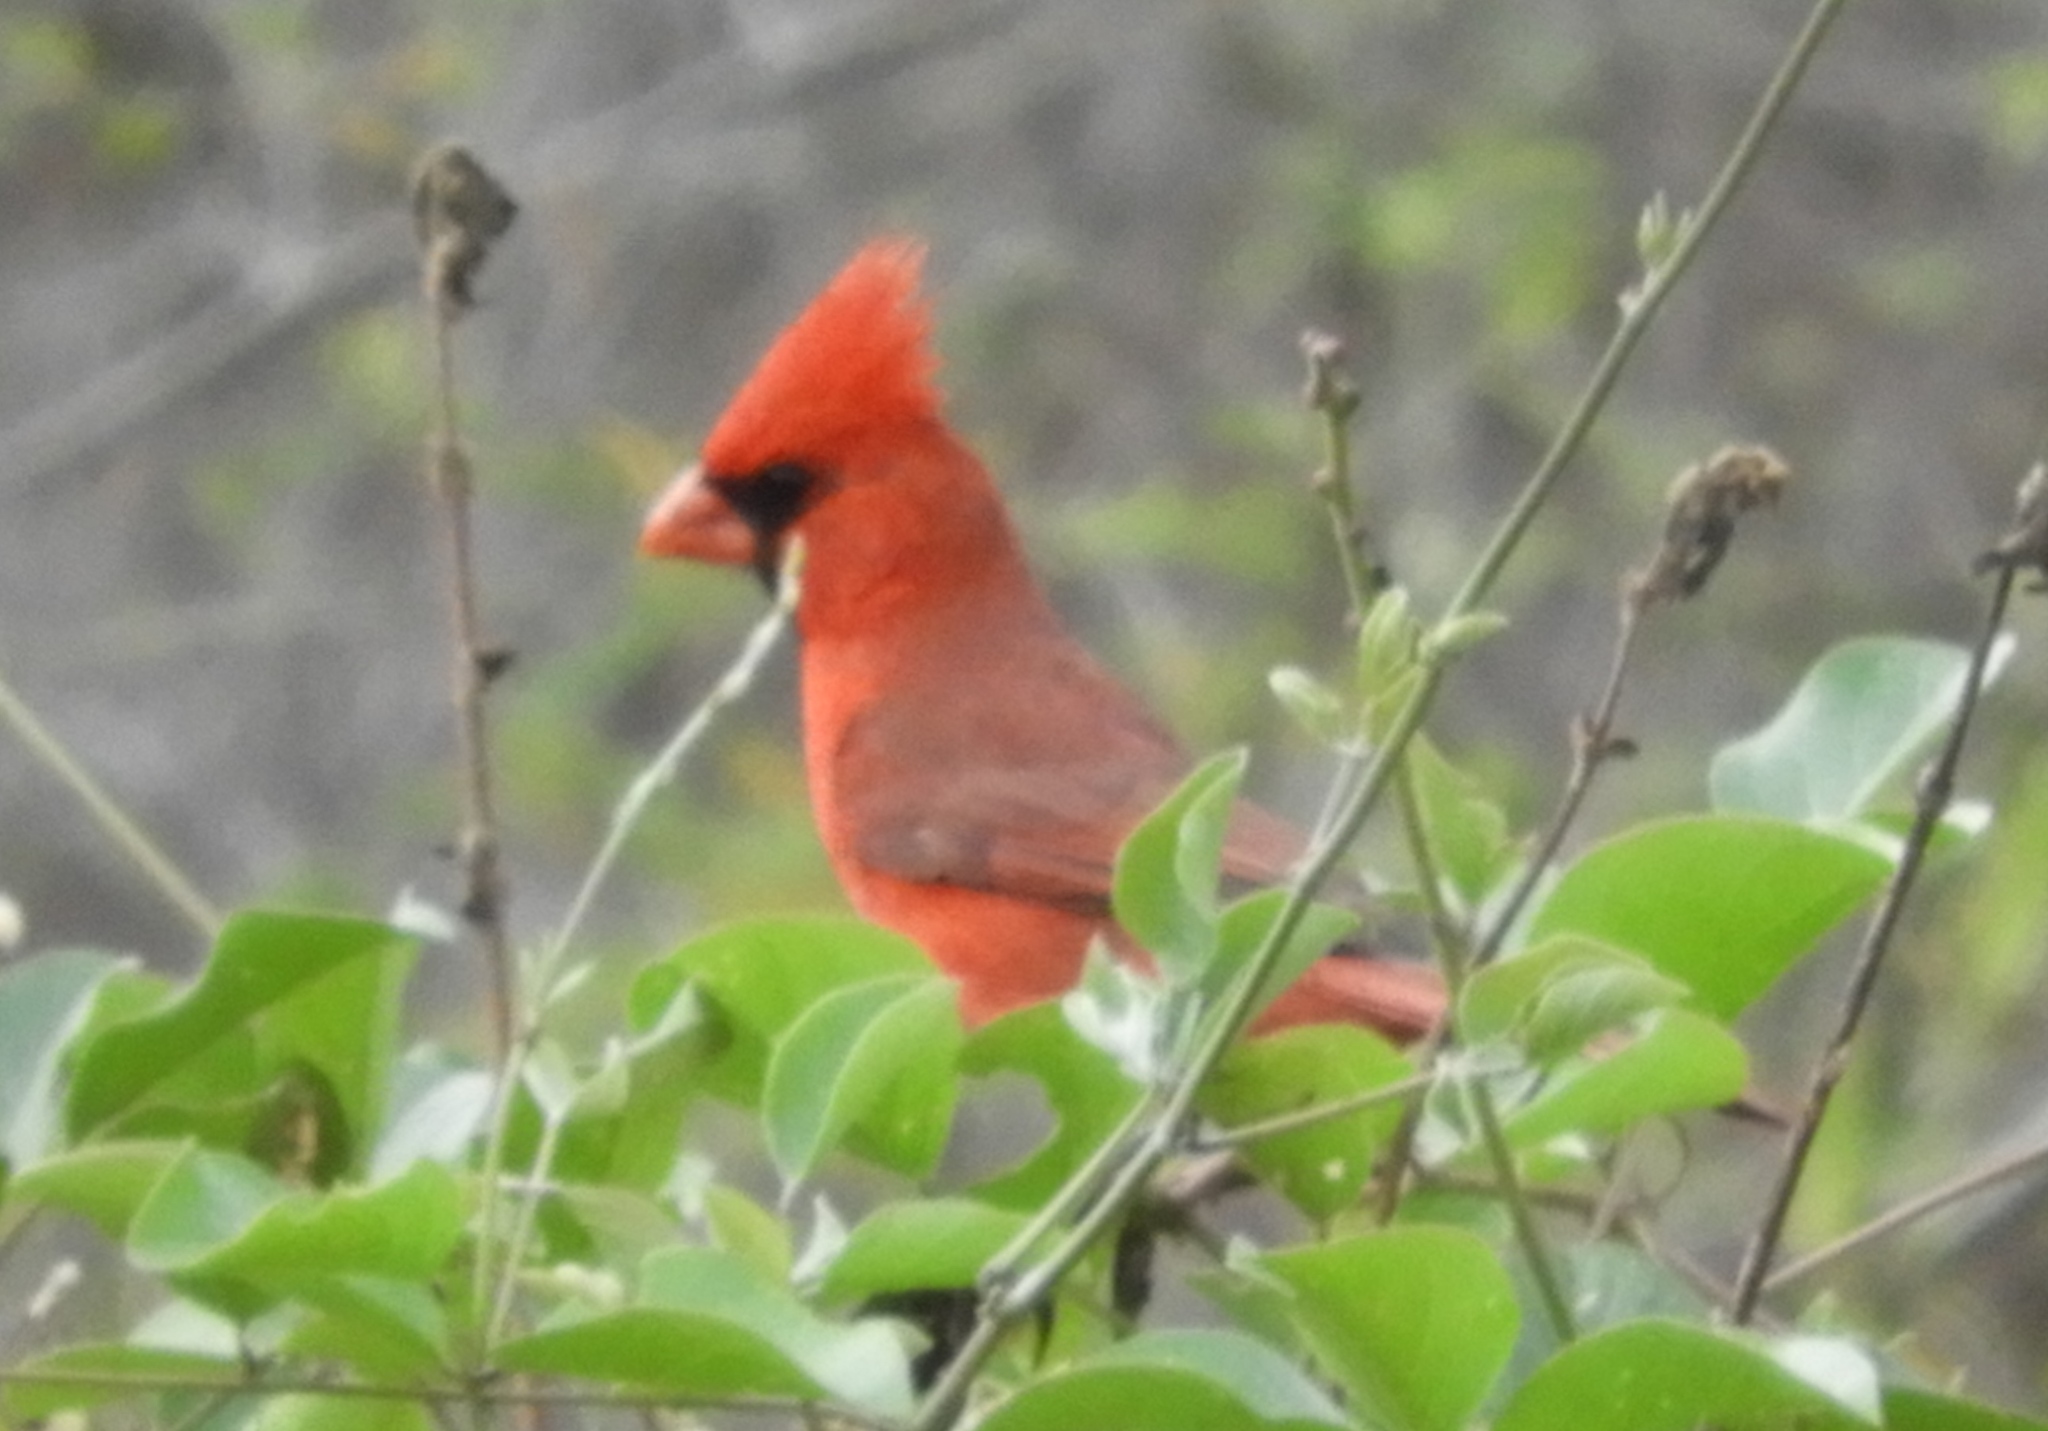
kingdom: Animalia
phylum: Chordata
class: Aves
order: Passeriformes
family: Cardinalidae
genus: Cardinalis
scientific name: Cardinalis cardinalis
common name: Northern cardinal
